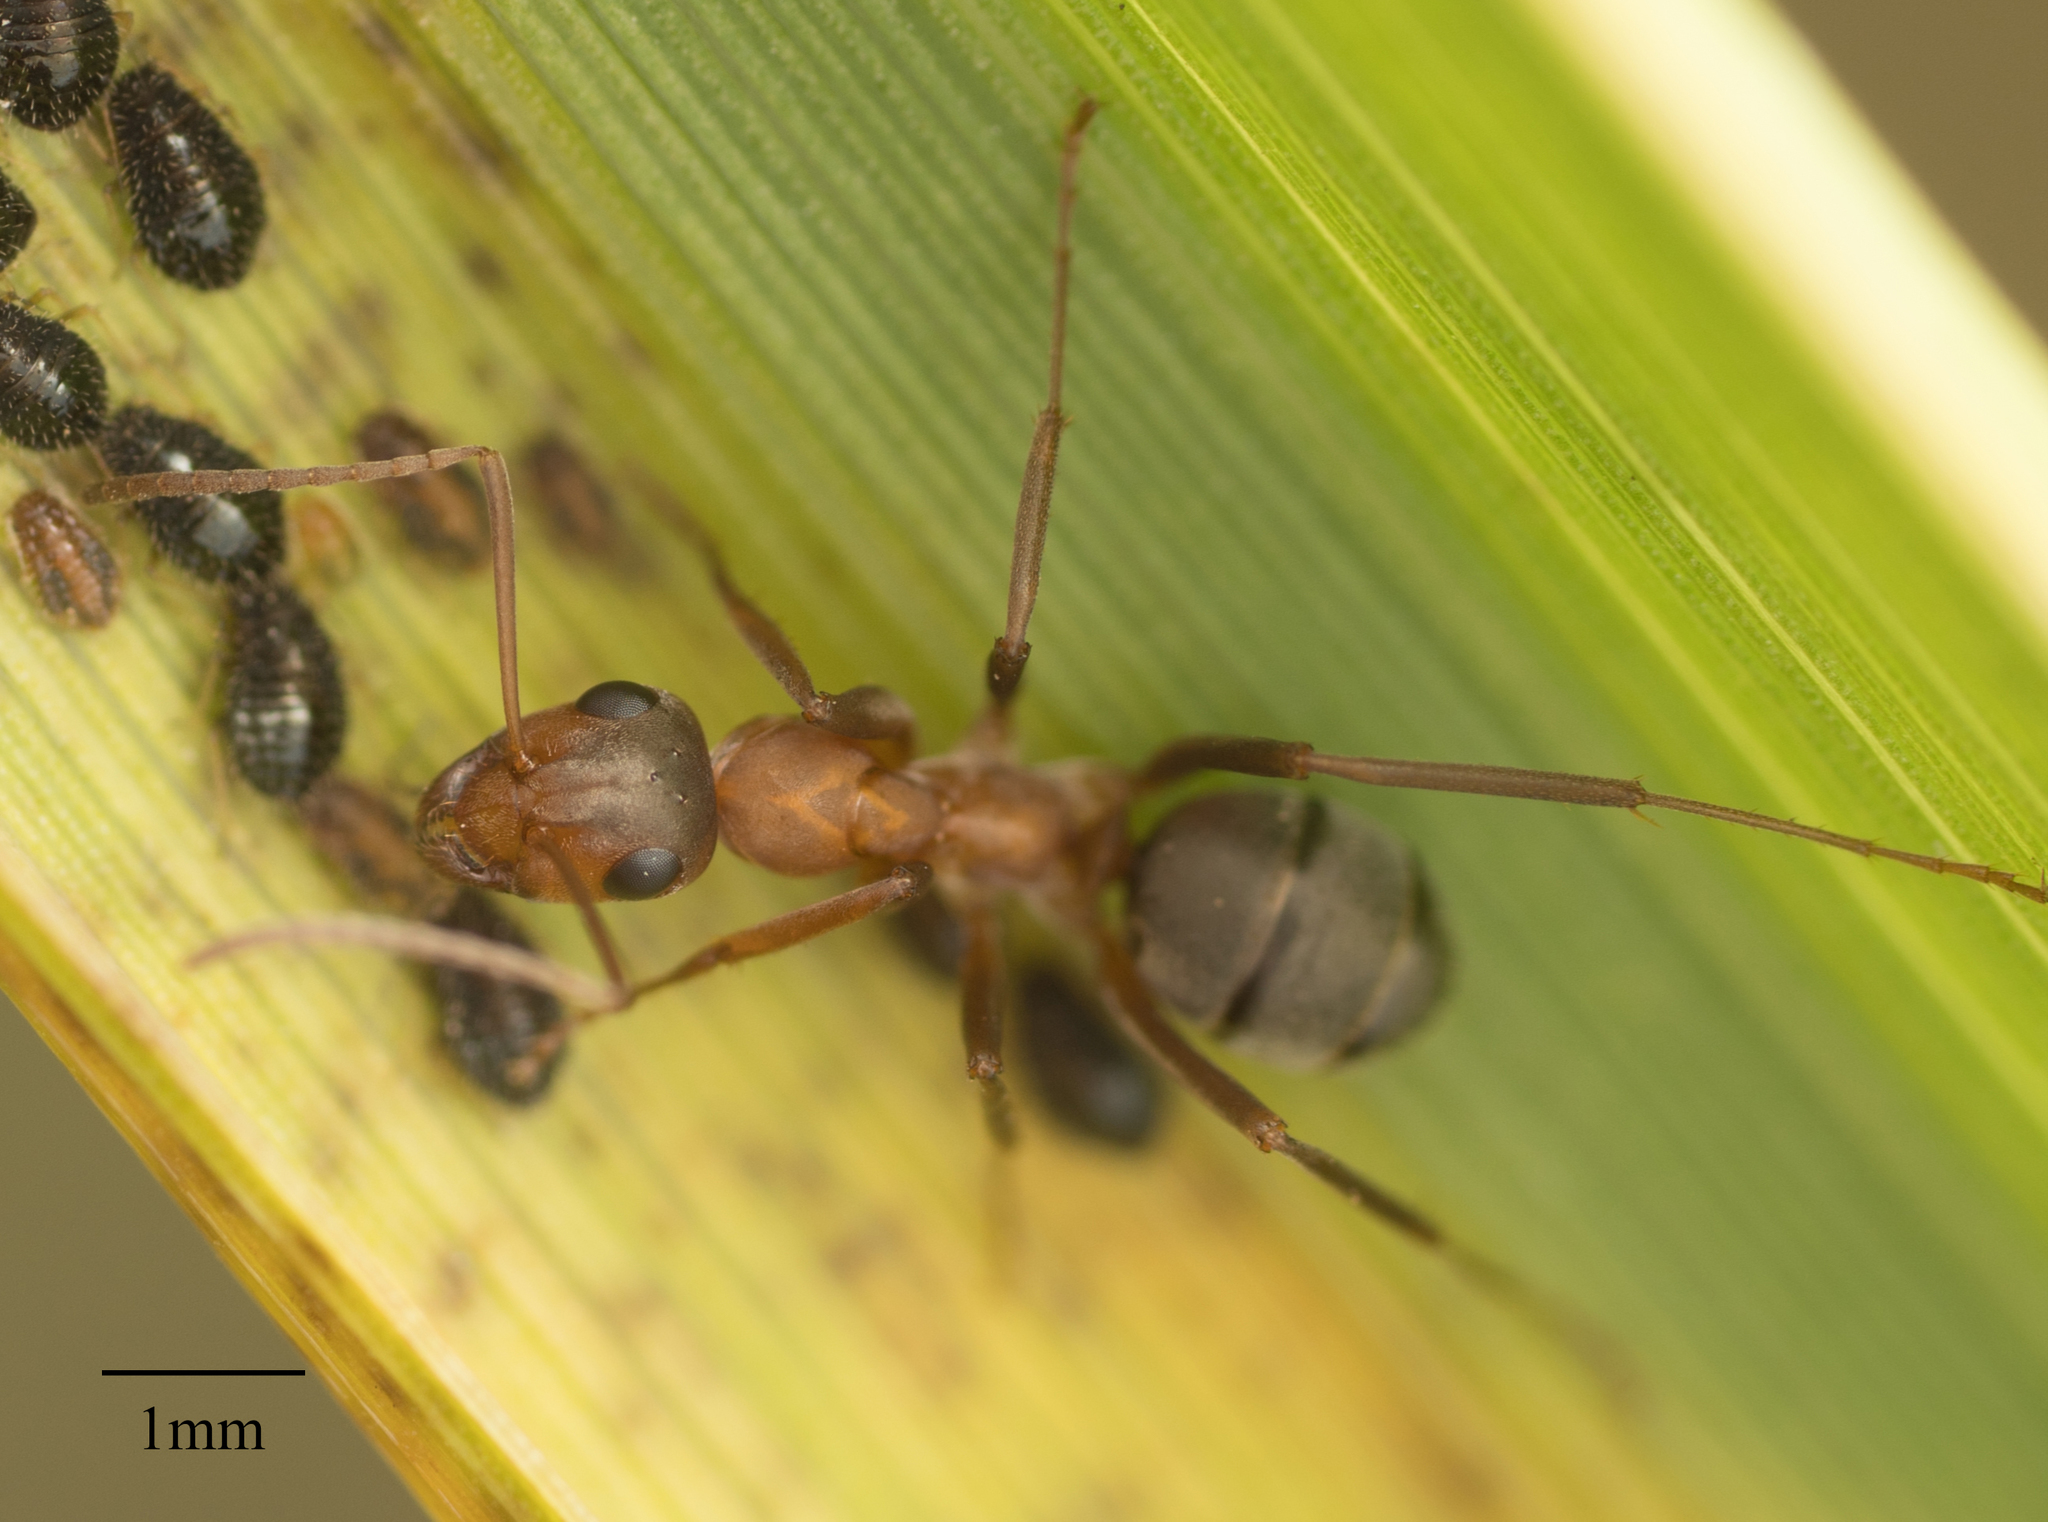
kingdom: Animalia
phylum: Arthropoda
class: Insecta
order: Hemiptera
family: Aphididae
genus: Sipha
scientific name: Sipha maydis
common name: Aphid
